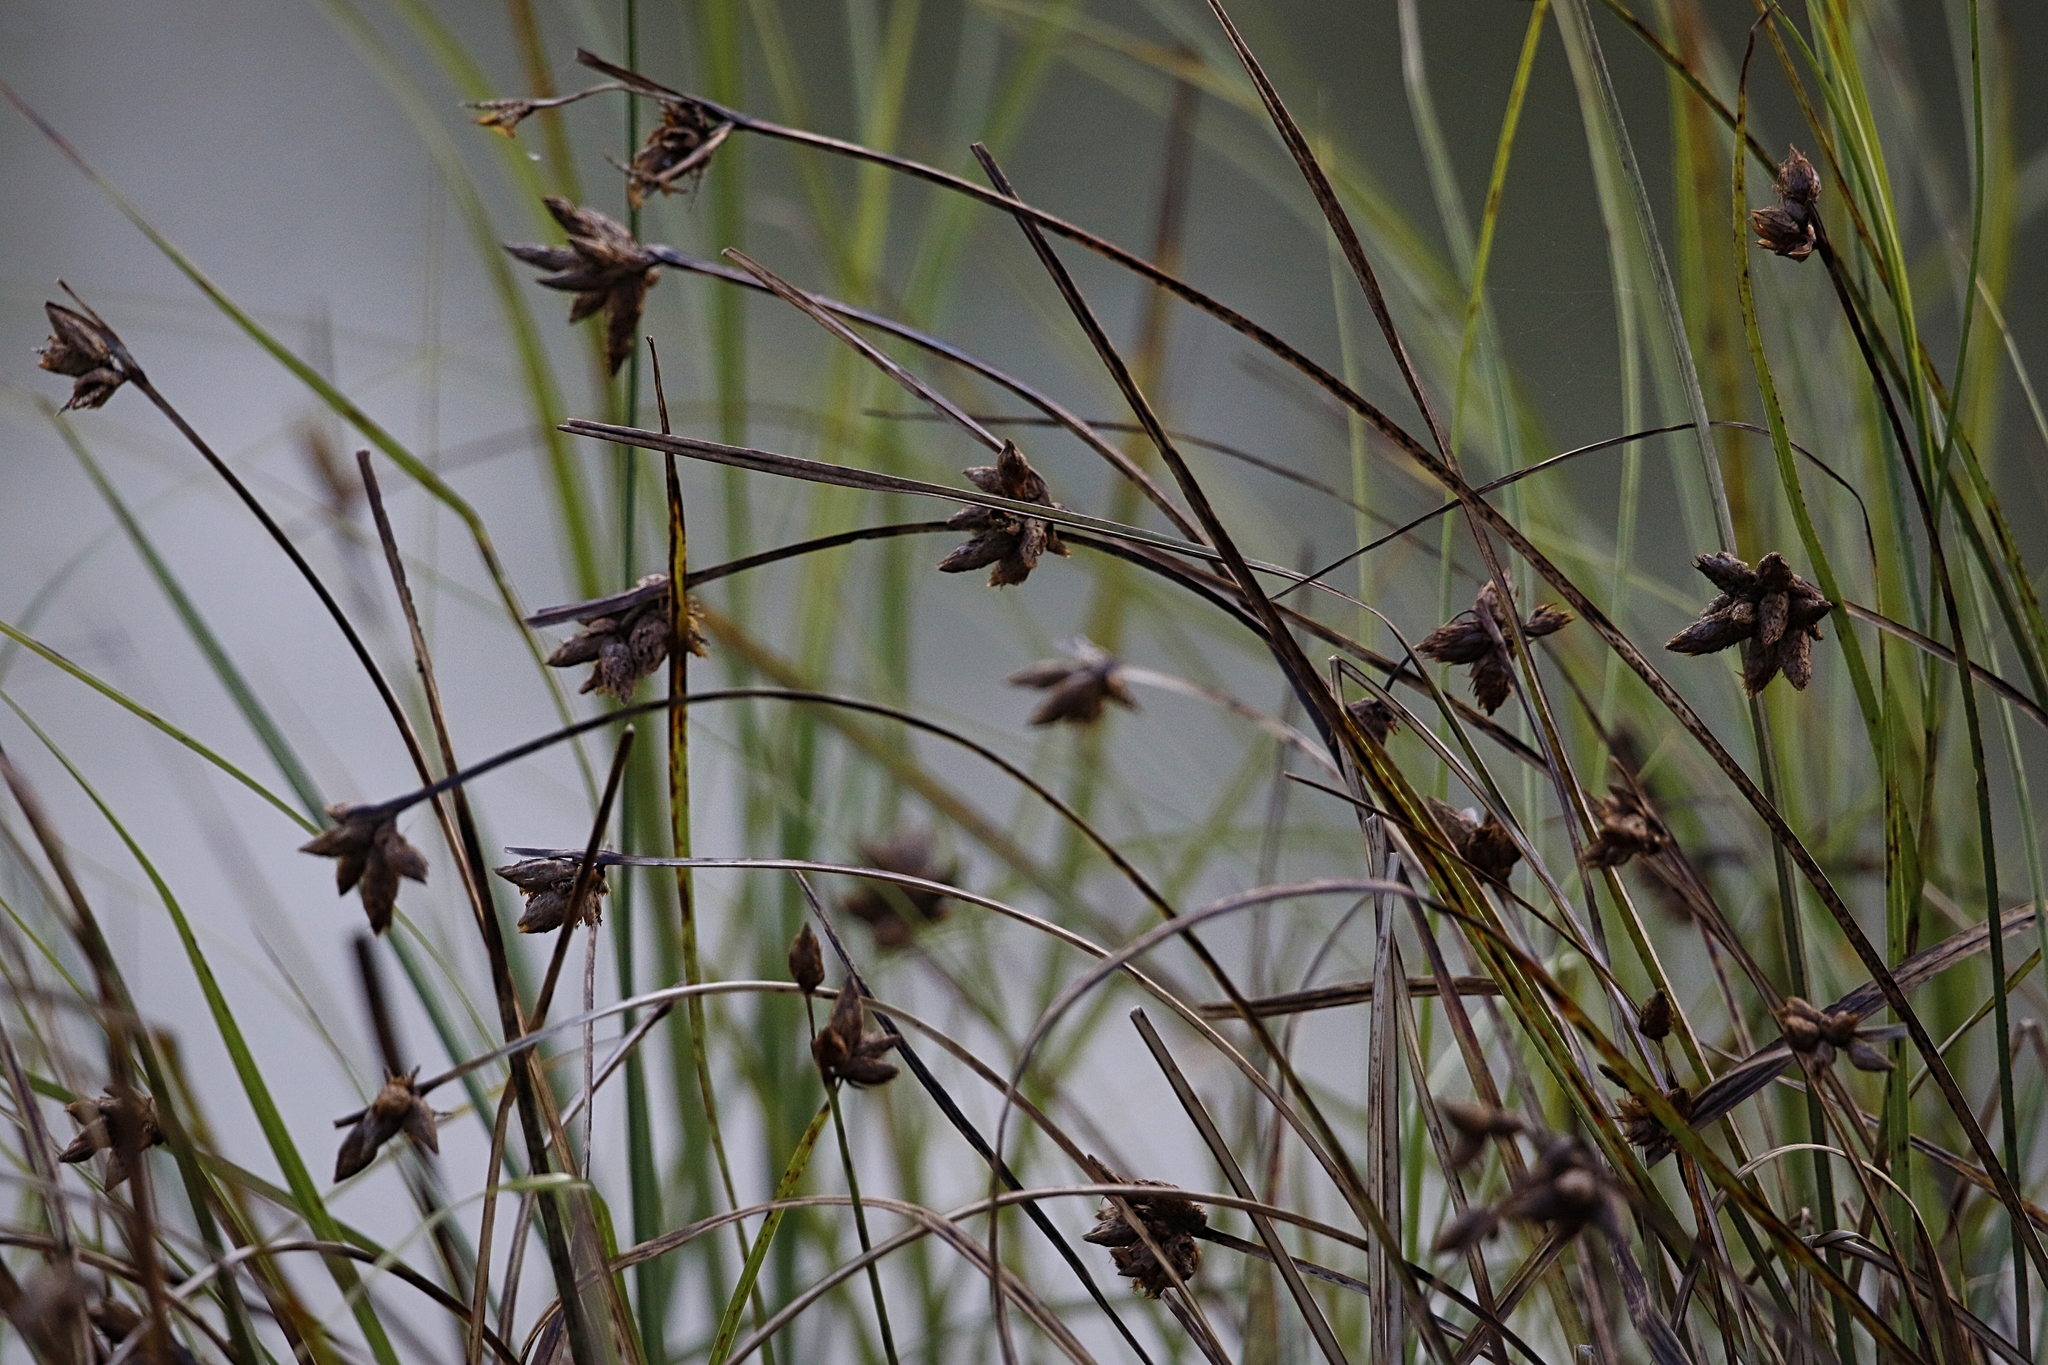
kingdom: Plantae
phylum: Tracheophyta
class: Liliopsida
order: Poales
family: Cyperaceae
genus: Bolboschoenus
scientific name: Bolboschoenus maritimus
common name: Sea club-rush
